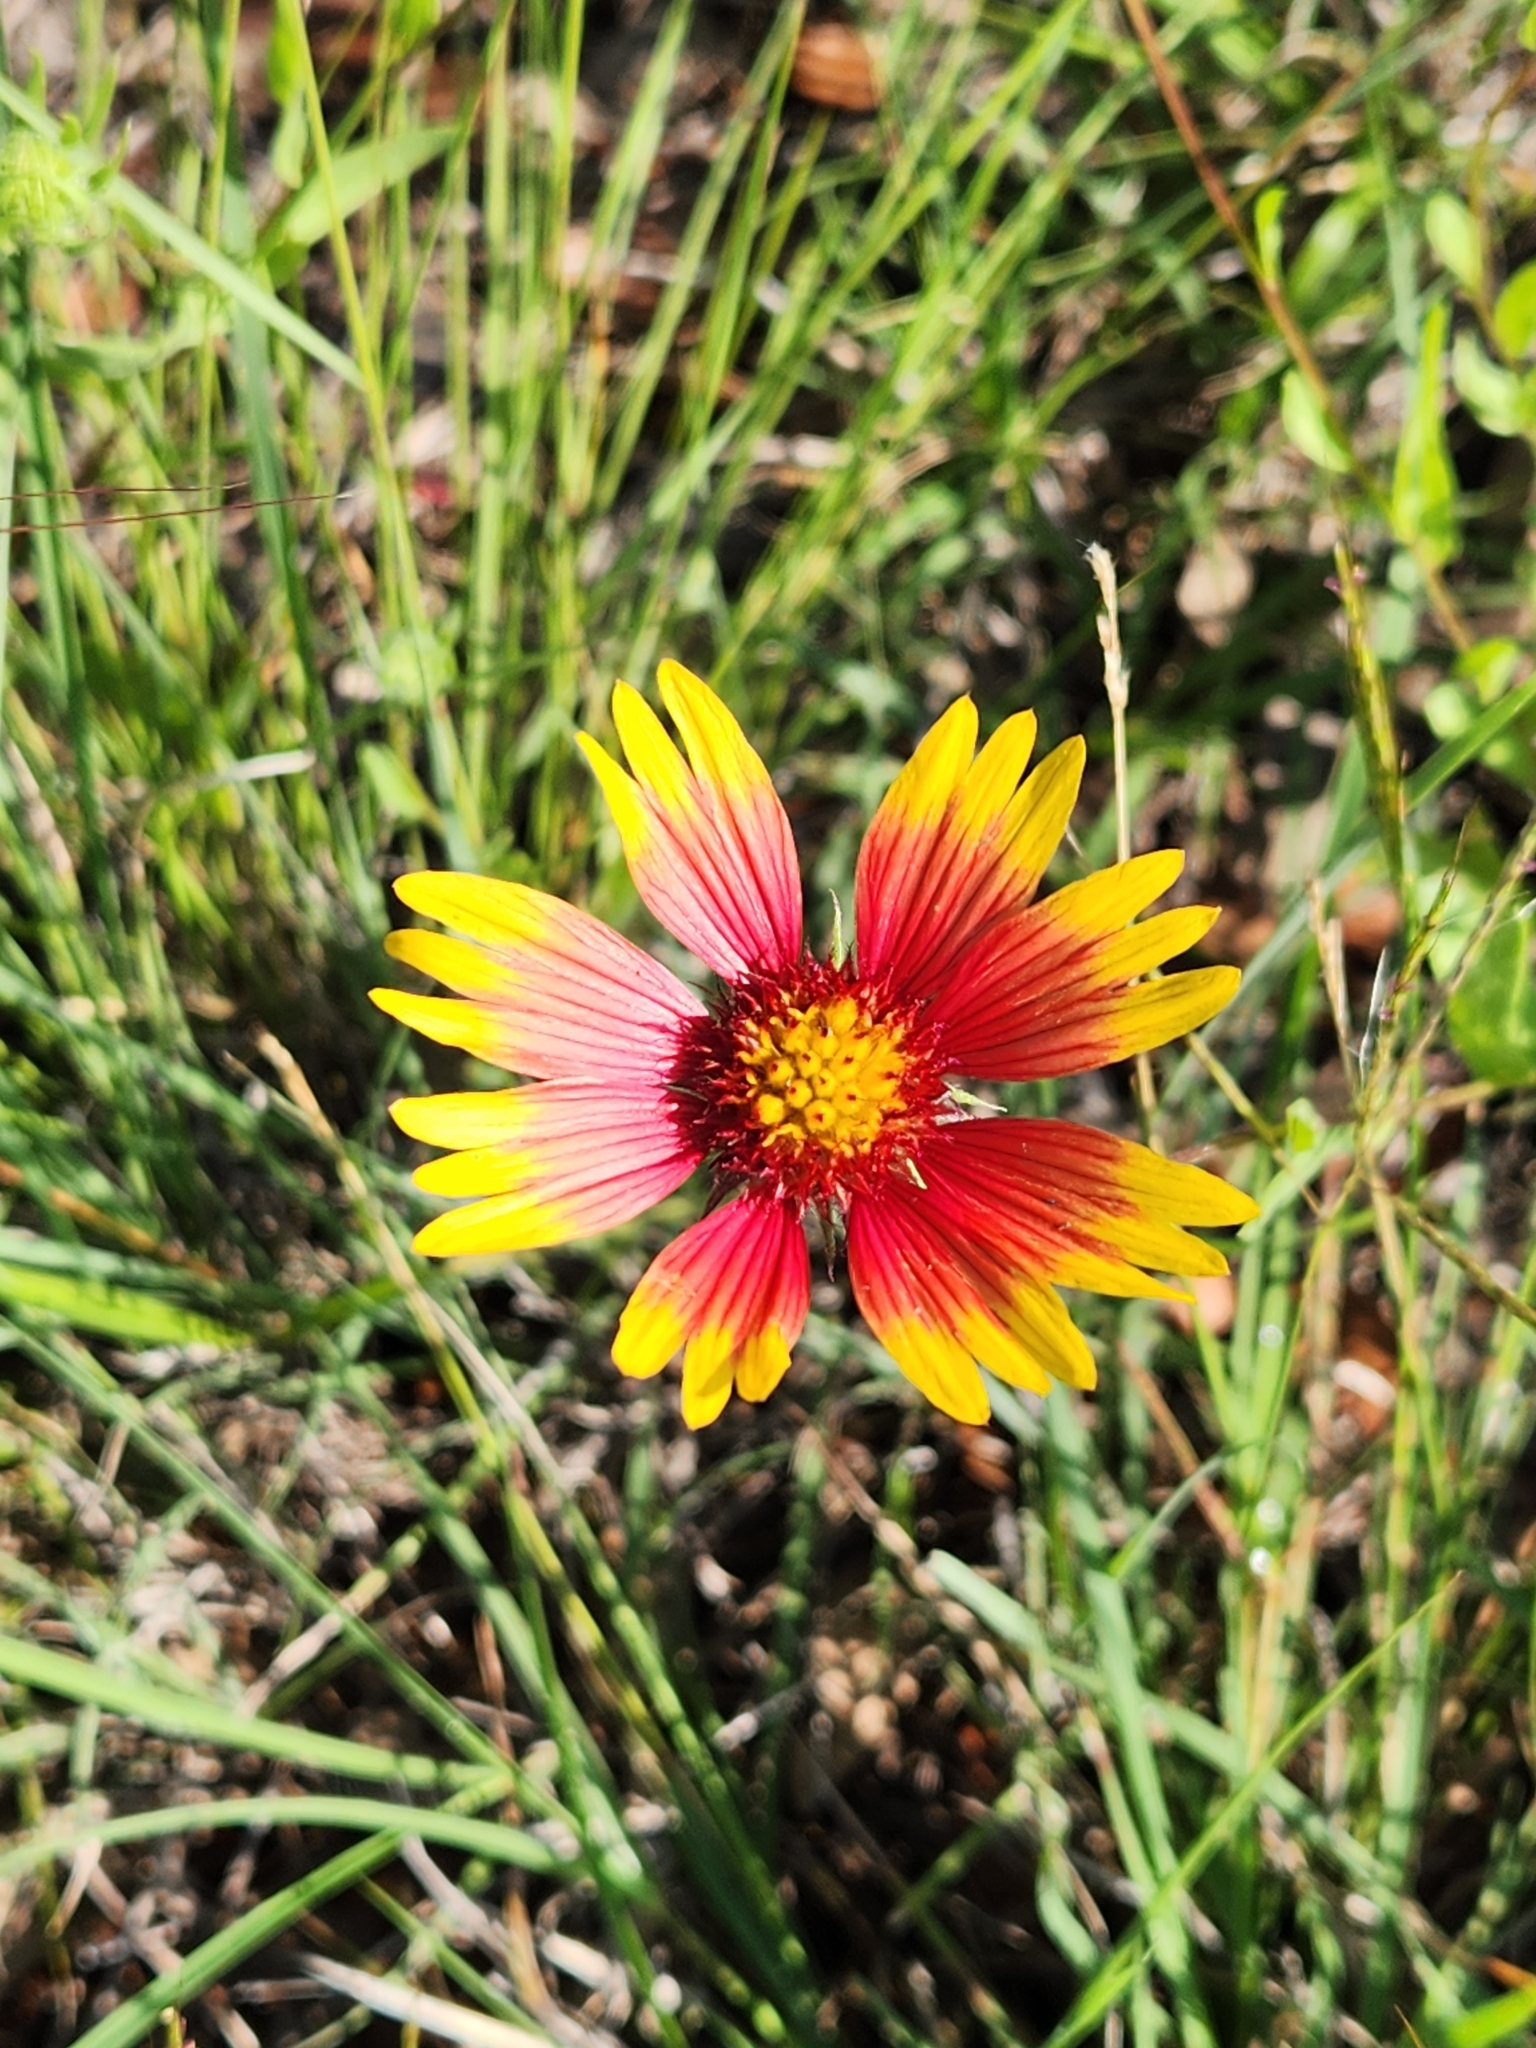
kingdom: Plantae
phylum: Tracheophyta
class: Magnoliopsida
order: Asterales
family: Asteraceae
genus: Gaillardia
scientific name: Gaillardia pulchella
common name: Firewheel
